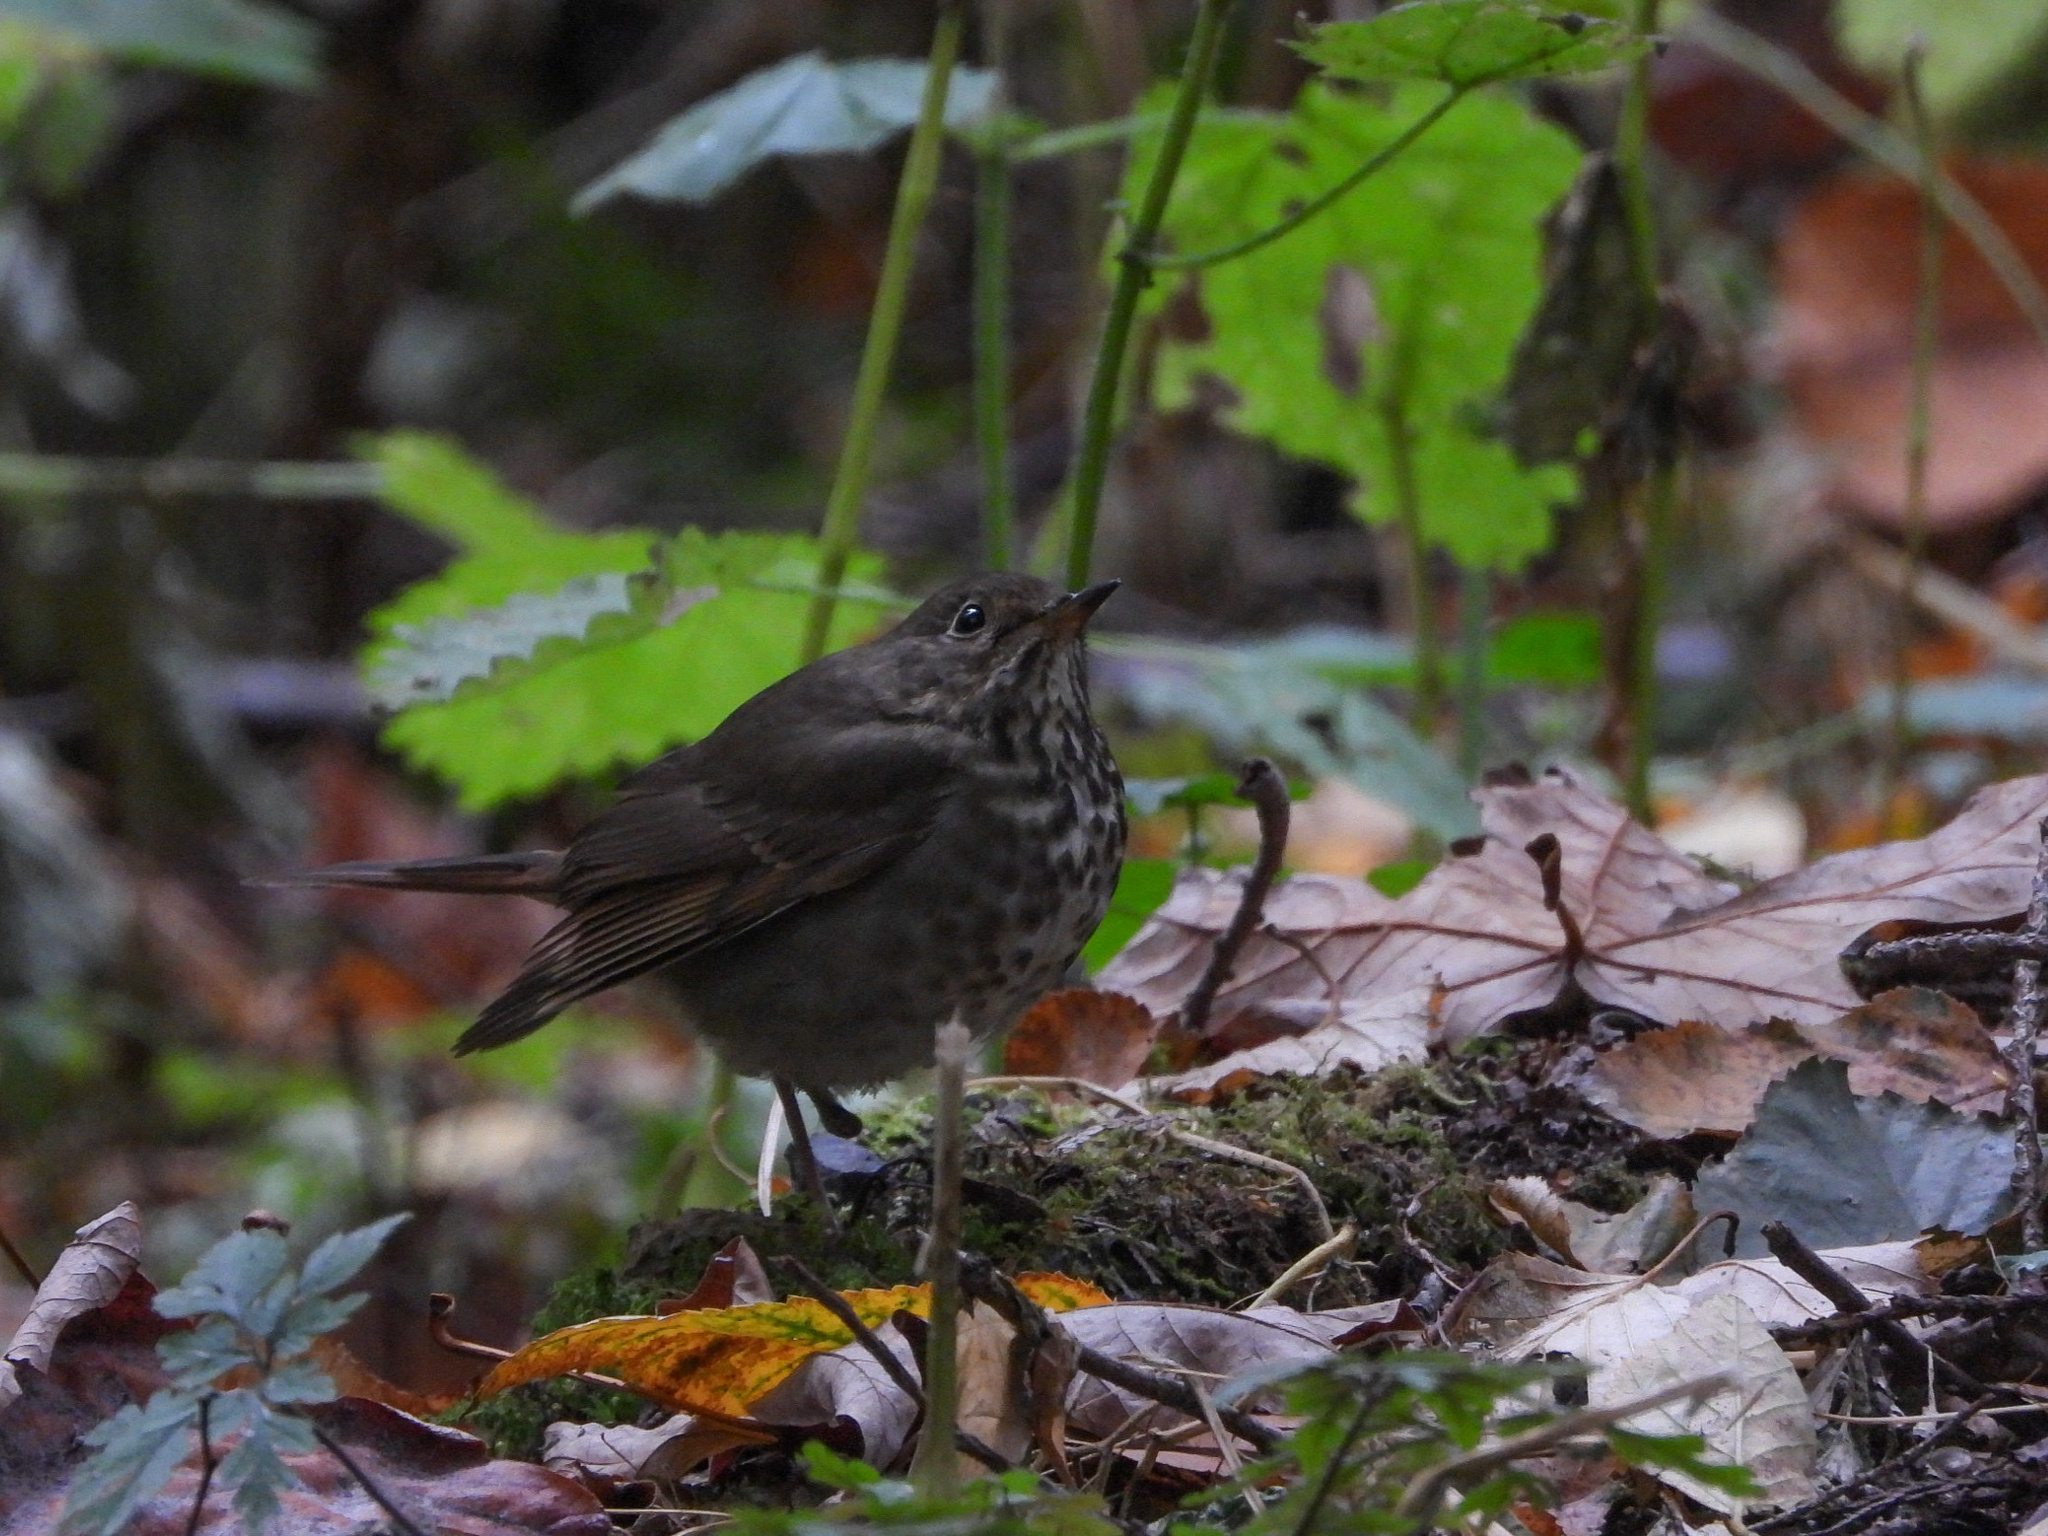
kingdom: Animalia
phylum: Chordata
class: Aves
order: Passeriformes
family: Turdidae
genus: Catharus
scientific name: Catharus guttatus
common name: Hermit thrush
